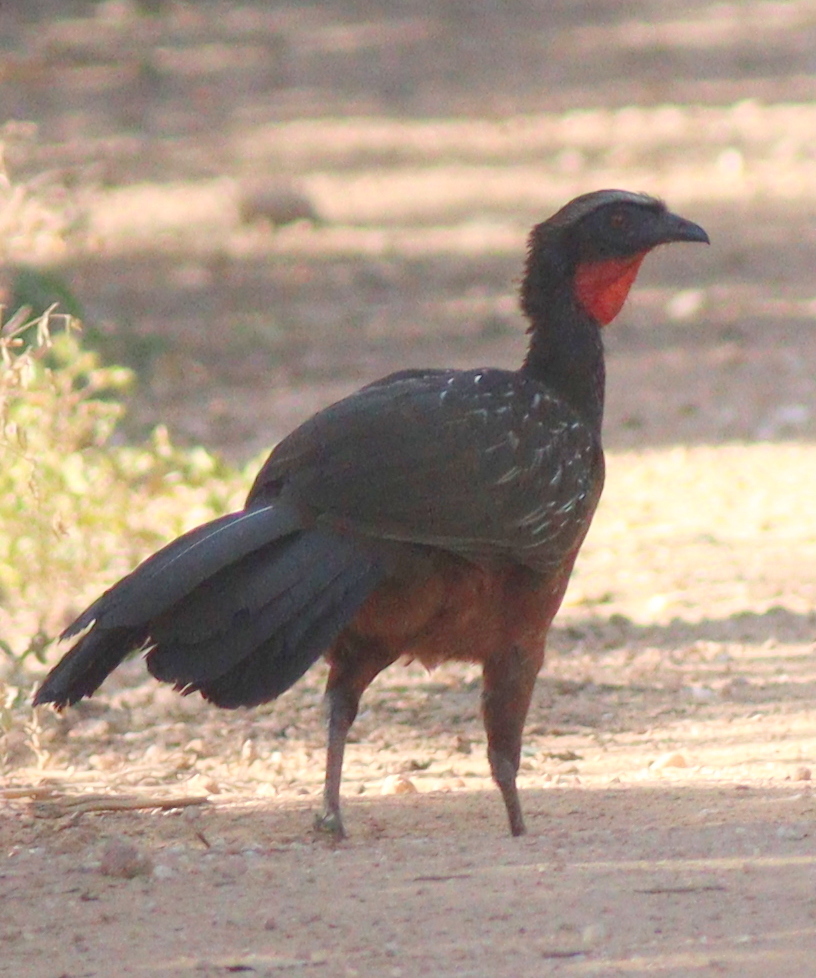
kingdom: Animalia
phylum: Chordata
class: Aves
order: Galliformes
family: Cracidae
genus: Penelope
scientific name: Penelope ochrogaster
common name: Chestnut-bellied guan
